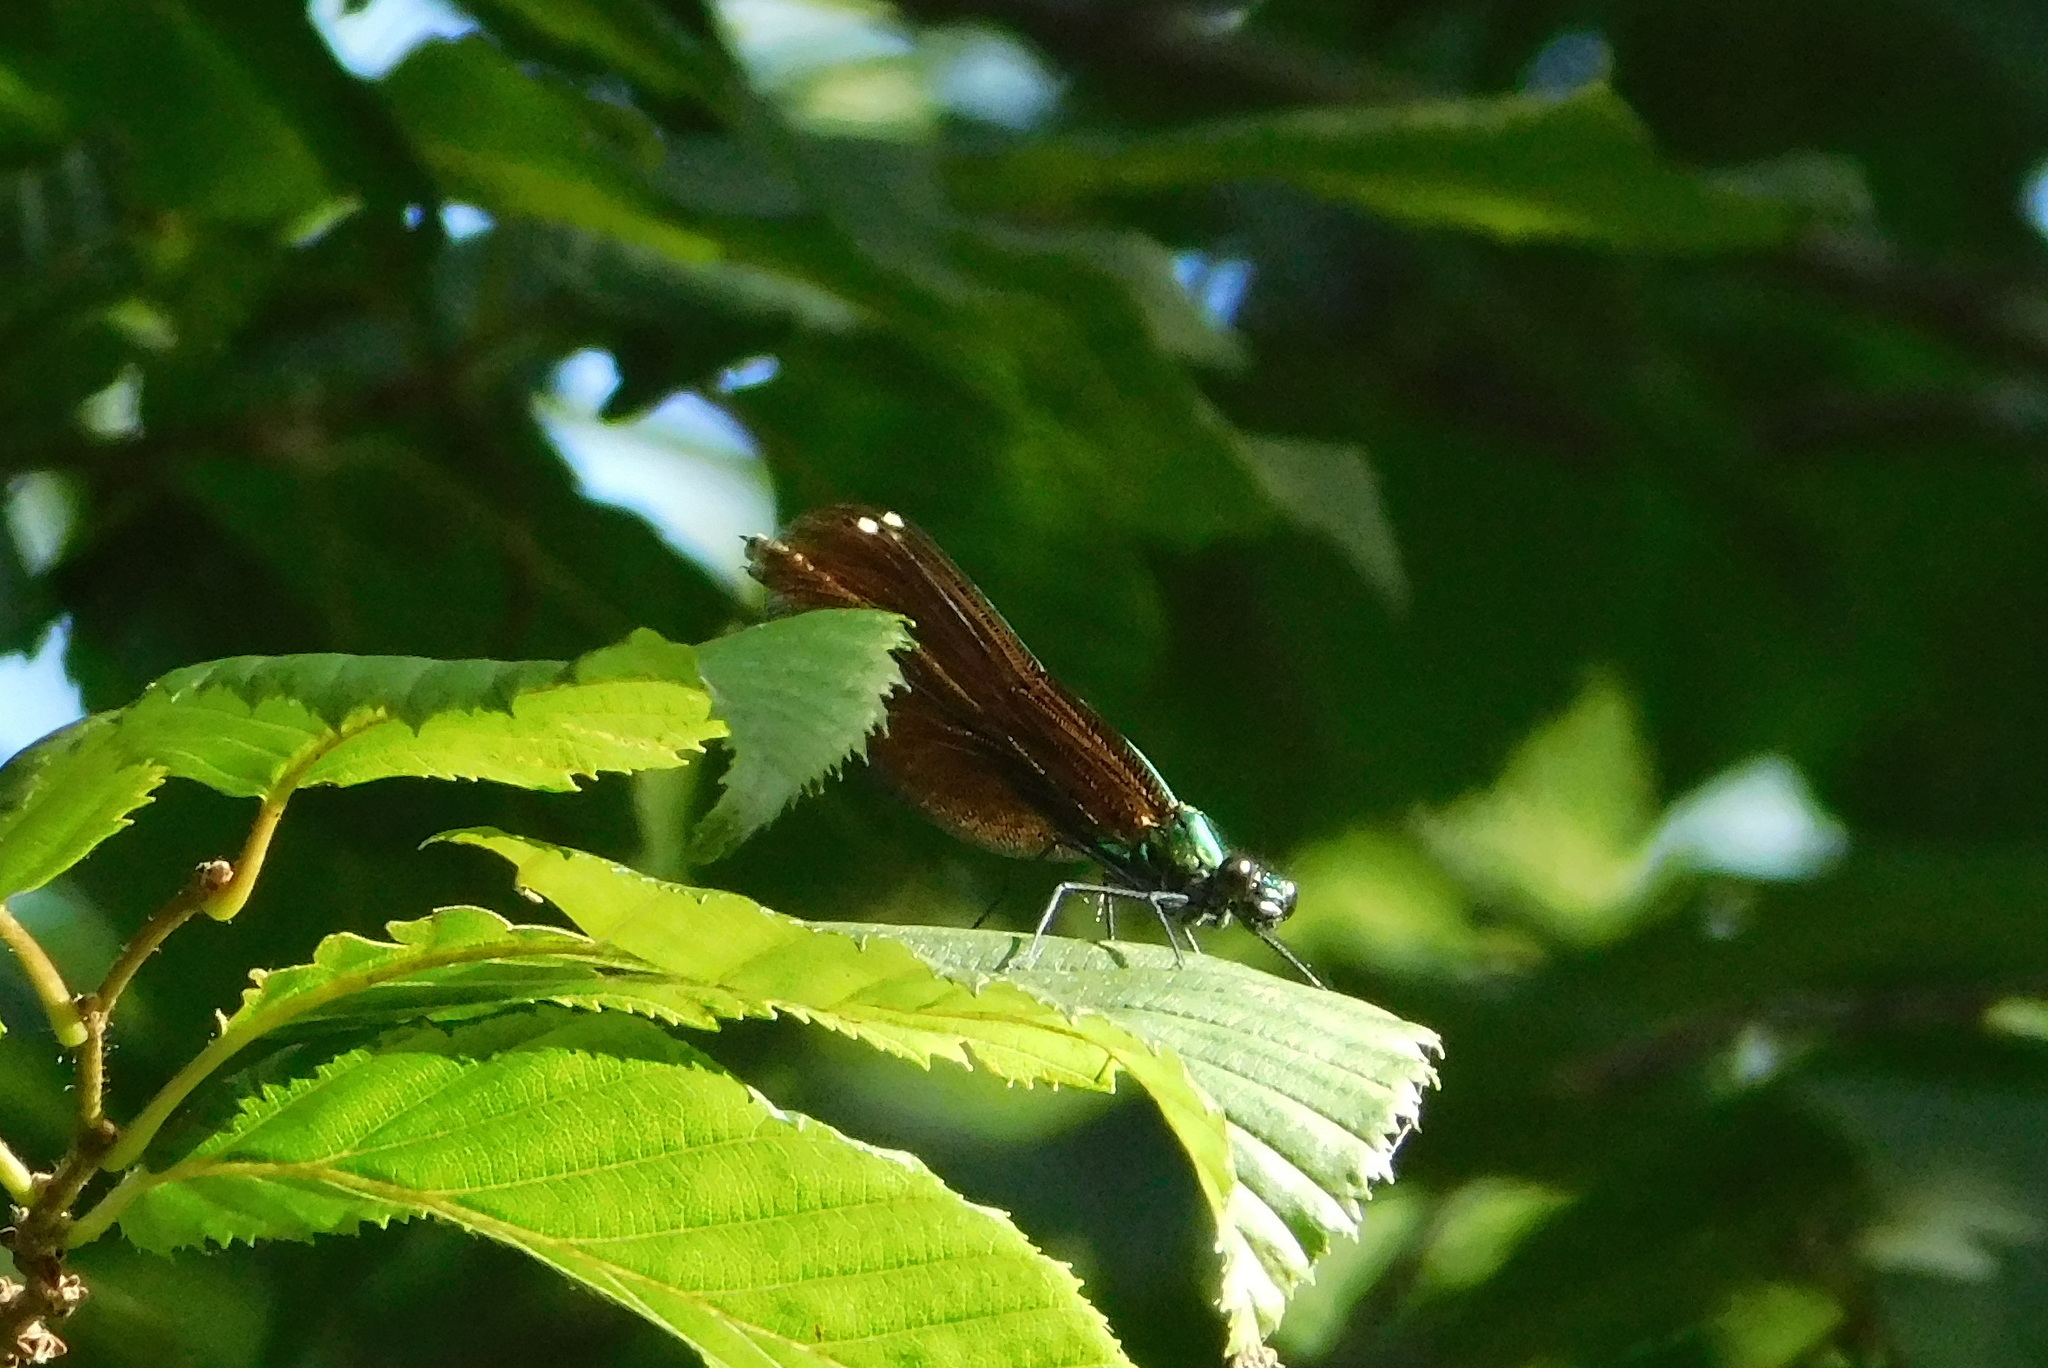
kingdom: Animalia
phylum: Arthropoda
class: Insecta
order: Odonata
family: Calopterygidae
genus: Calopteryx
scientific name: Calopteryx virgo
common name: Beautiful demoiselle
